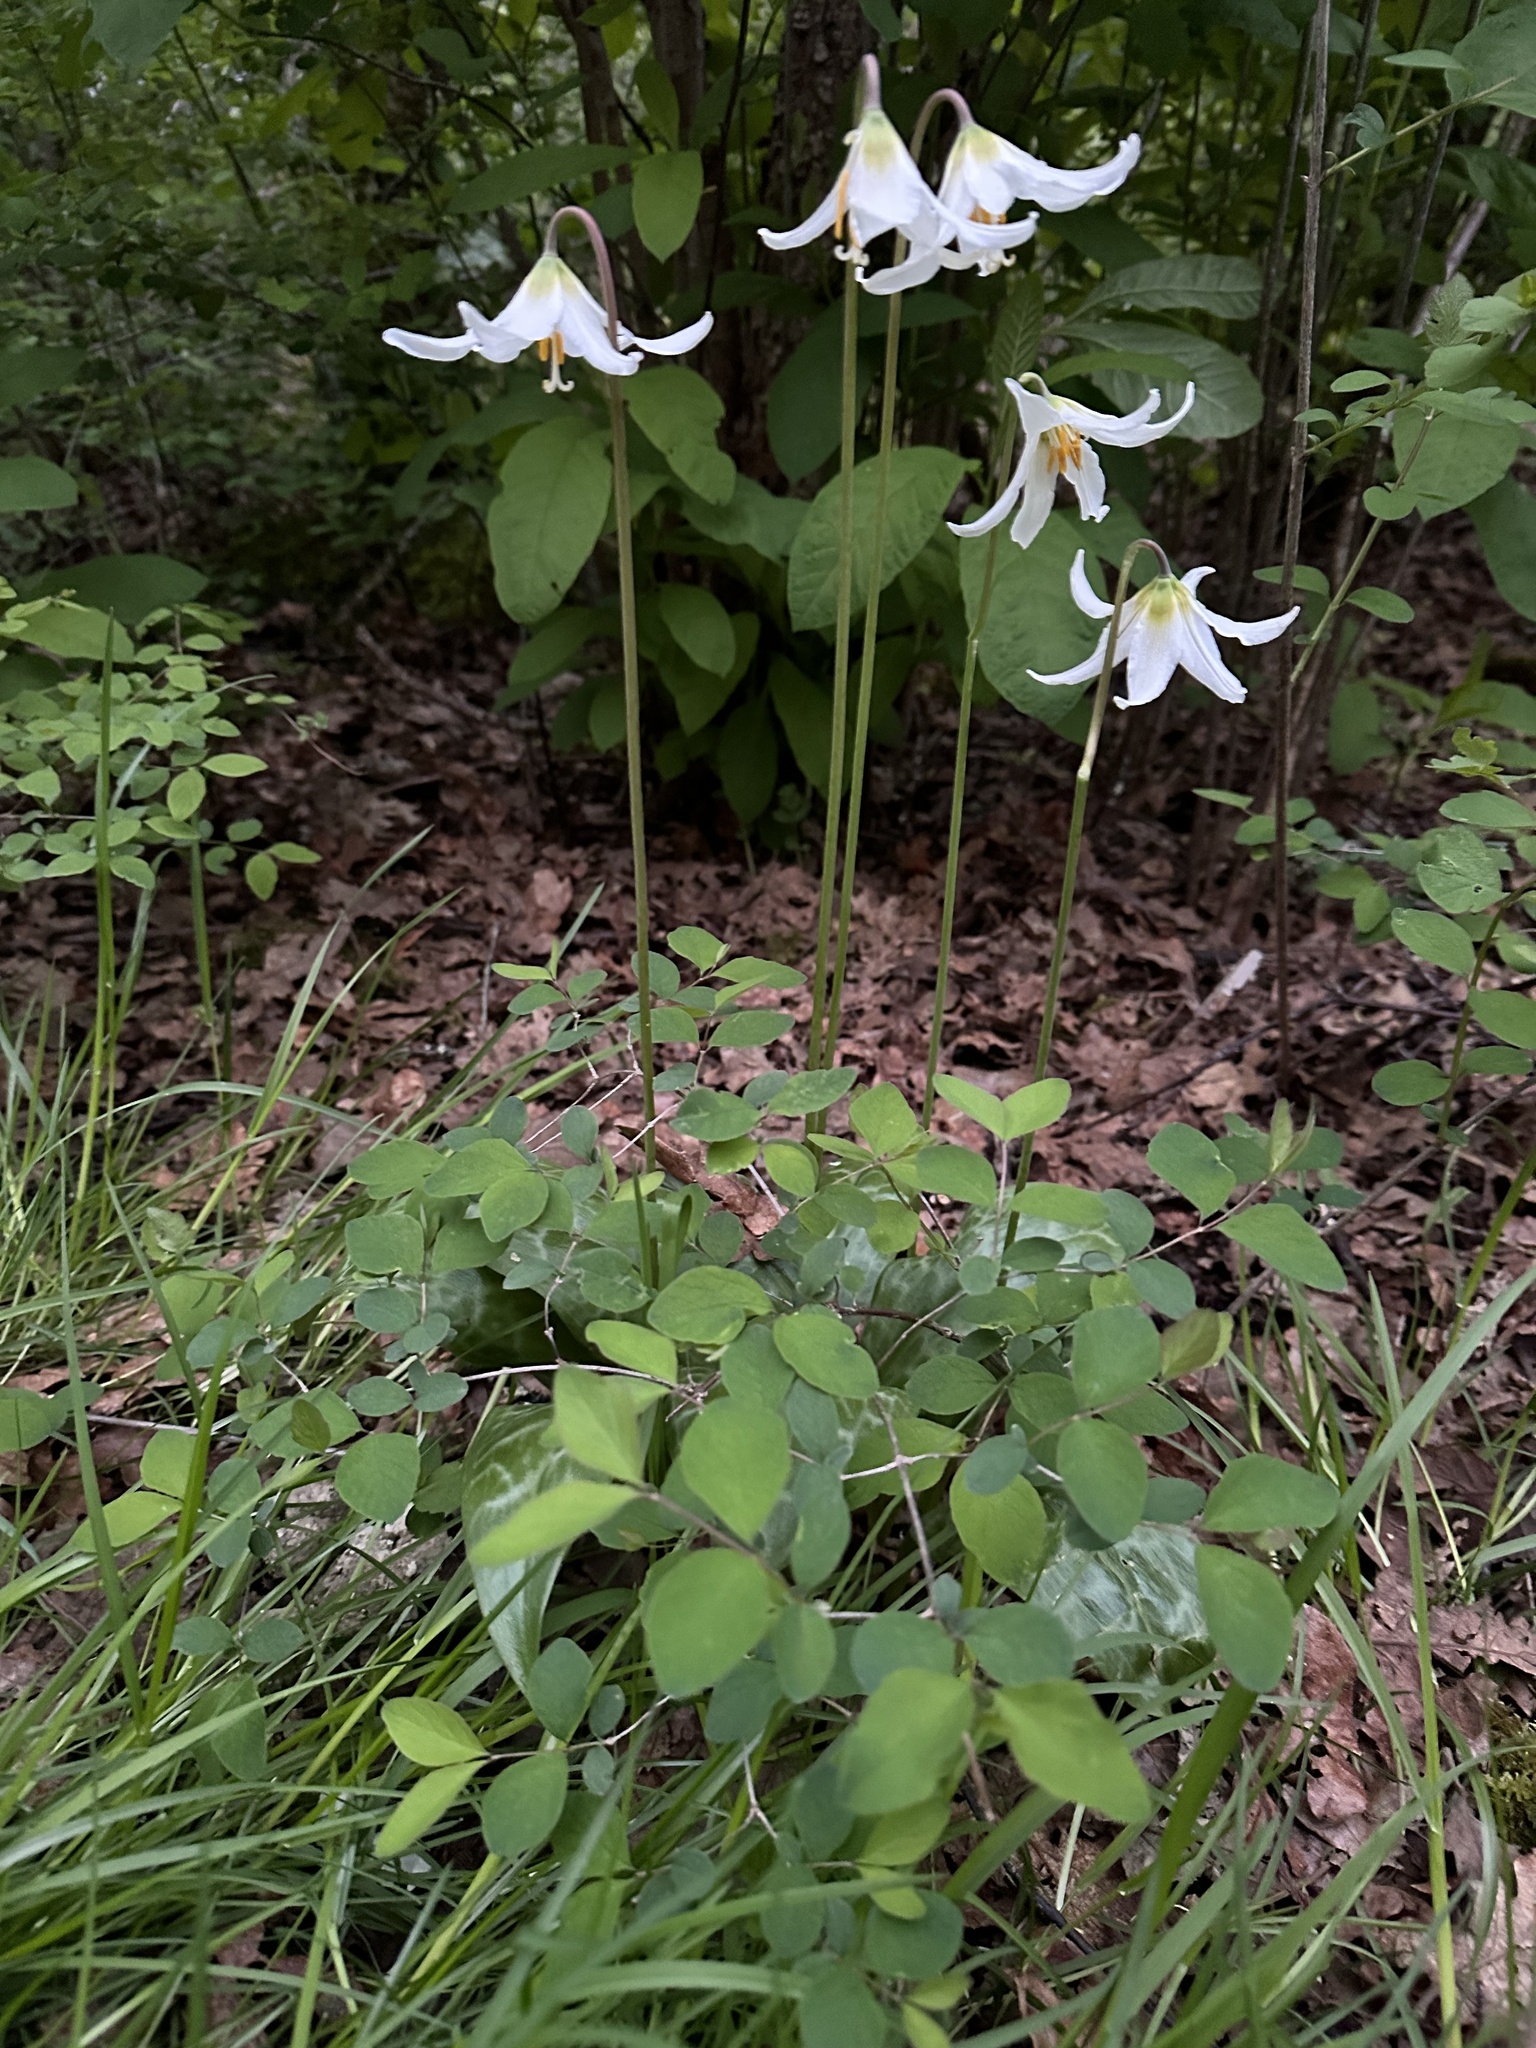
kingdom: Plantae
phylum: Tracheophyta
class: Liliopsida
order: Liliales
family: Liliaceae
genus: Erythronium
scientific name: Erythronium oregonum
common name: Giant adder's-tongue
